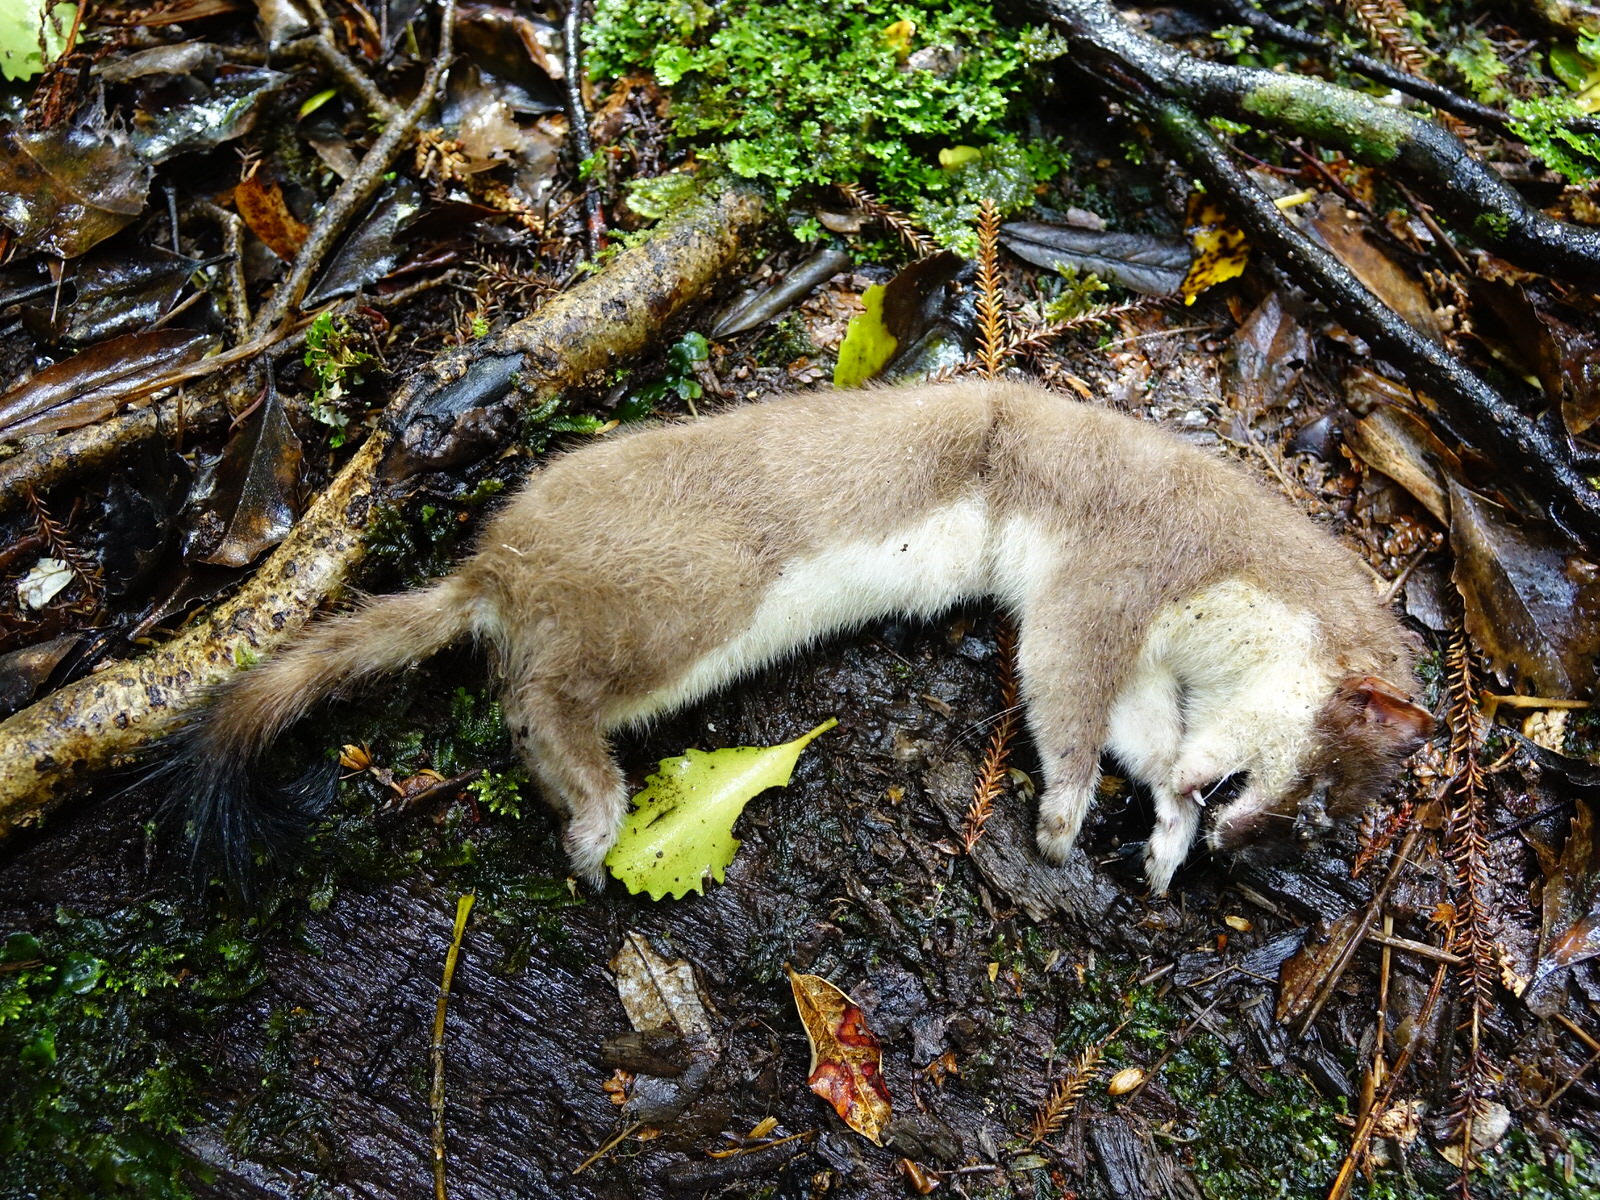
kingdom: Animalia
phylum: Chordata
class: Mammalia
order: Carnivora
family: Mustelidae
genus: Mustela
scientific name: Mustela erminea
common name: Stoat
